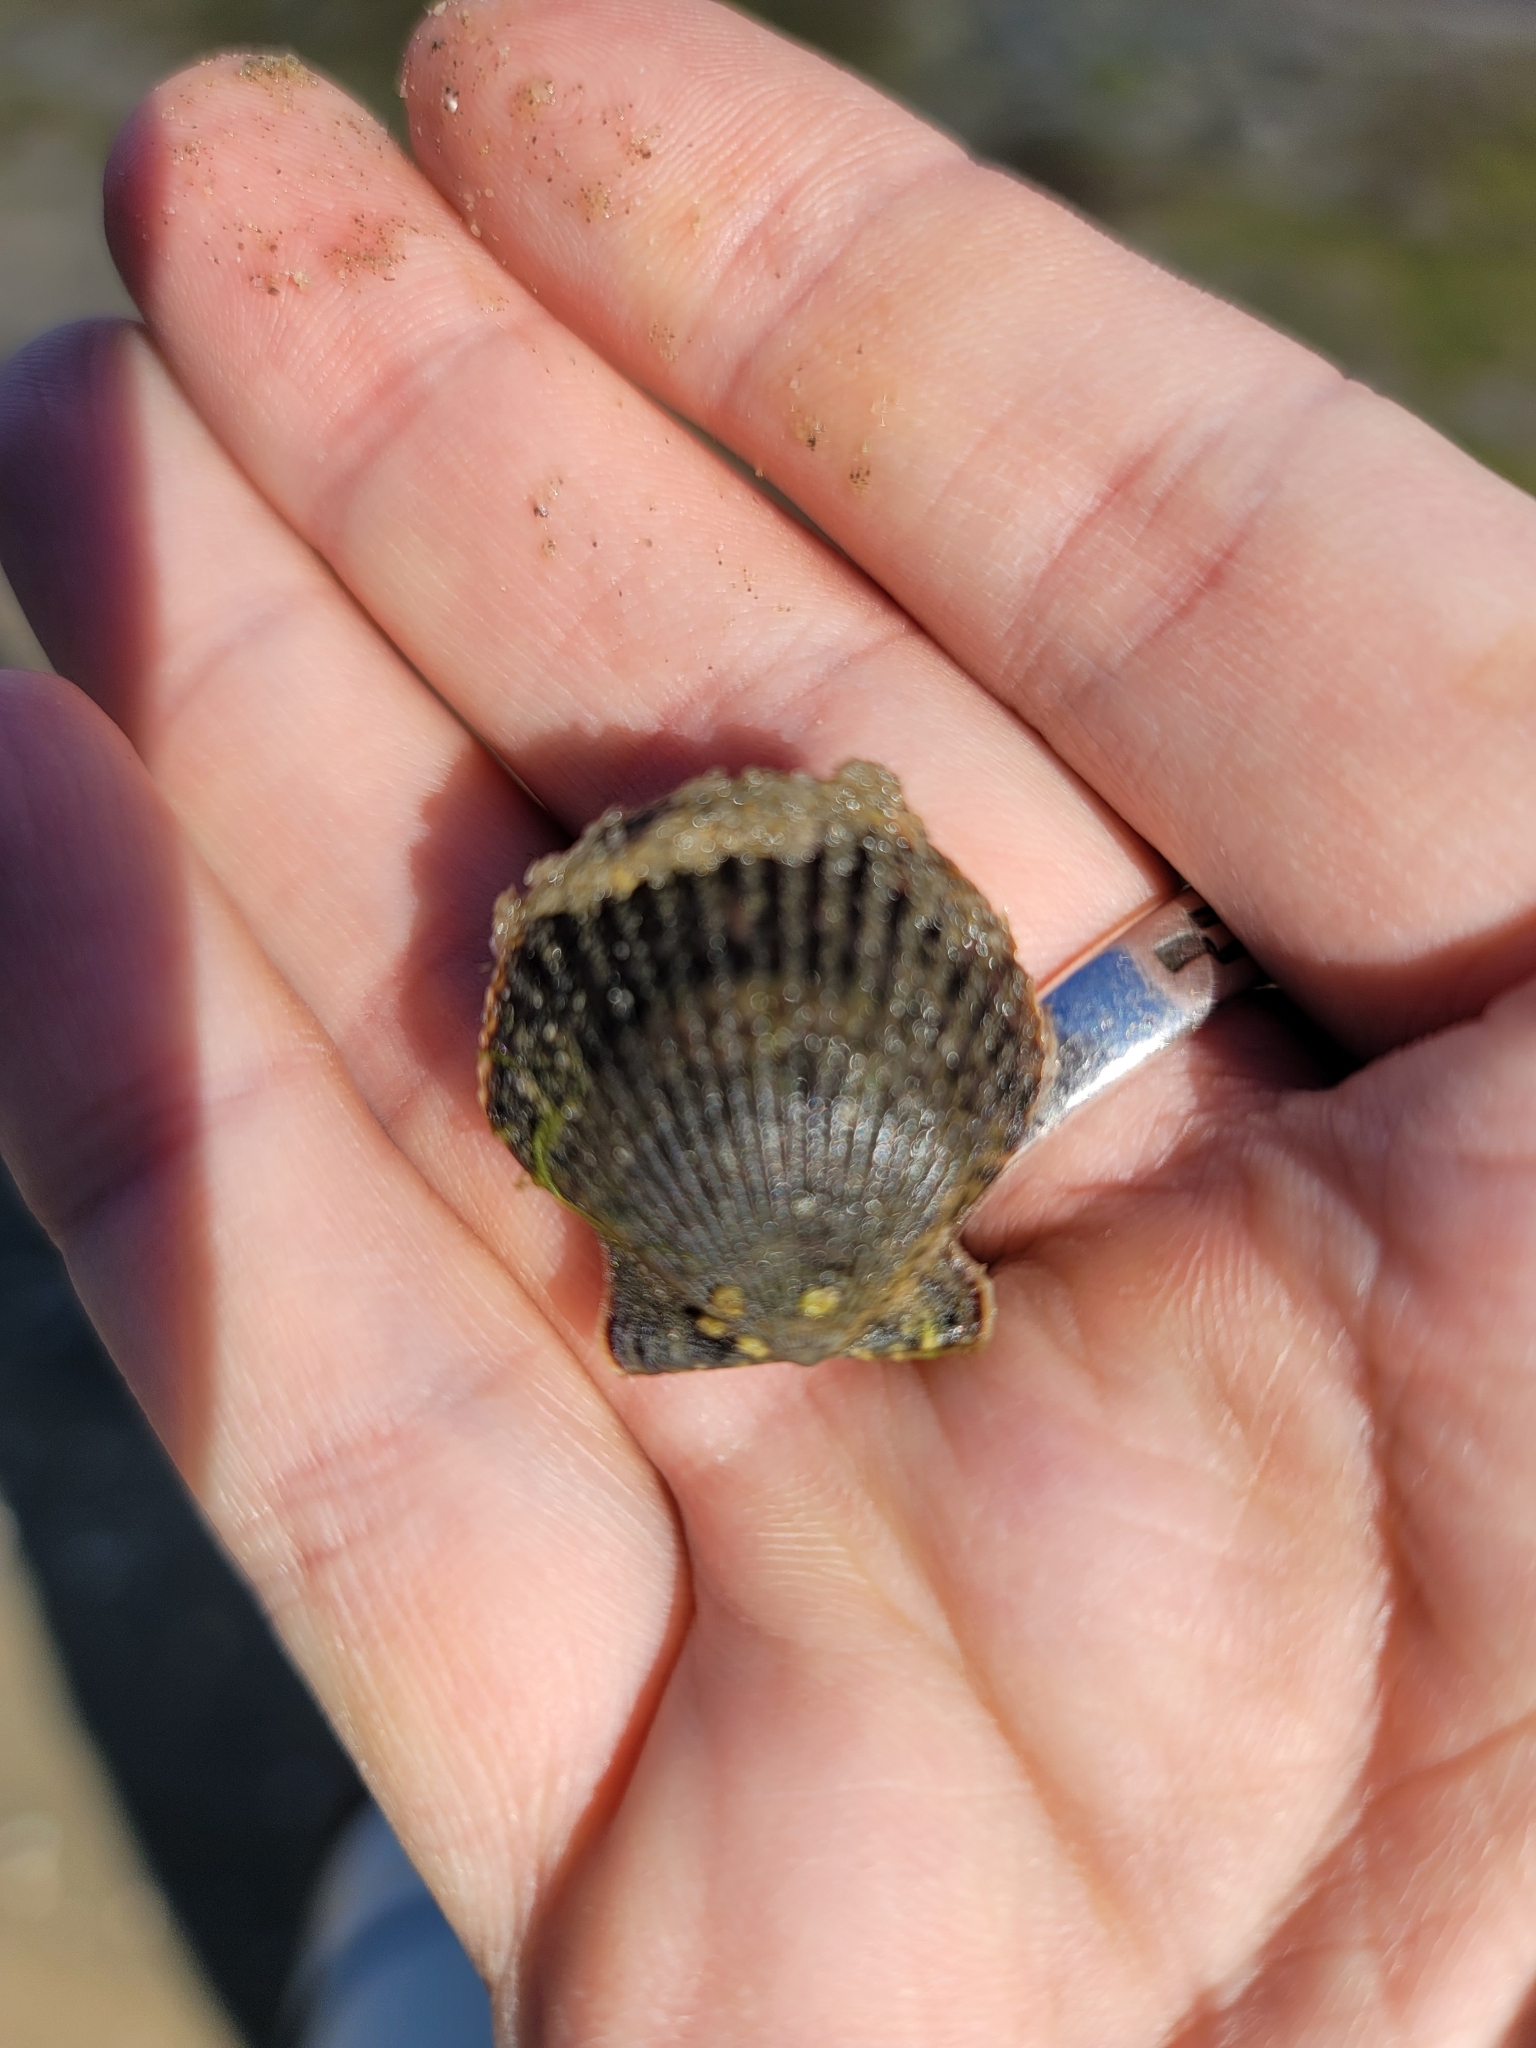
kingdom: Animalia
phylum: Mollusca
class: Bivalvia
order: Pectinida
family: Pectinidae
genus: Argopecten
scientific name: Argopecten ventricosus
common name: Catarina scallop
